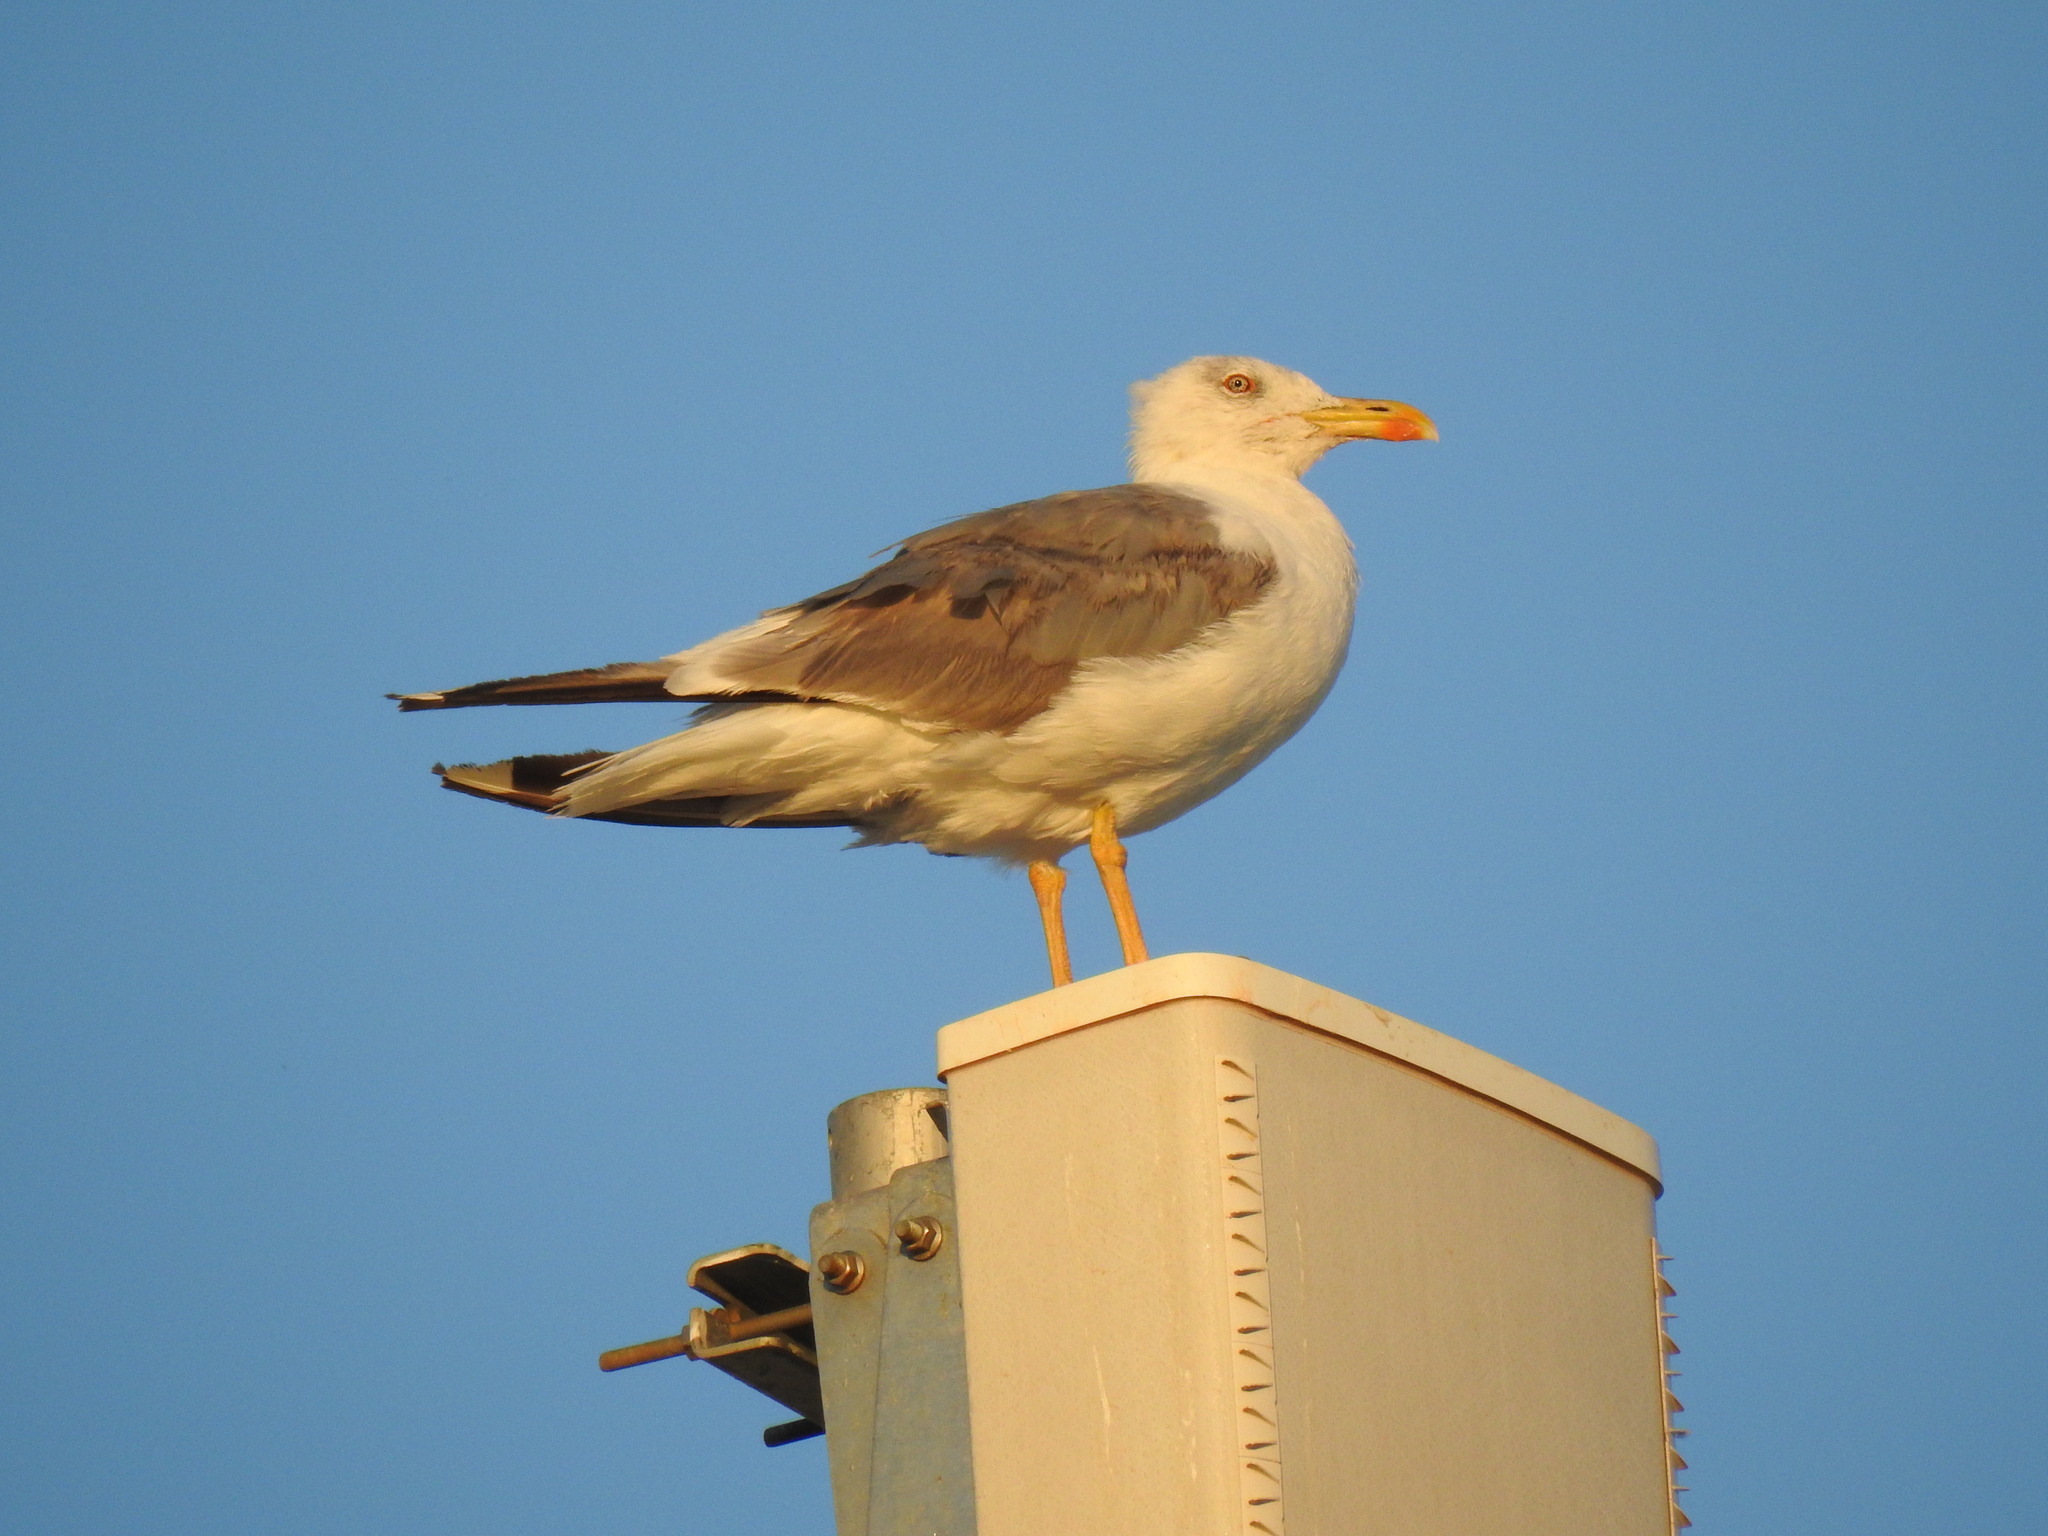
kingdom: Animalia
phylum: Chordata
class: Aves
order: Charadriiformes
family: Laridae
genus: Larus
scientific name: Larus michahellis
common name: Yellow-legged gull
